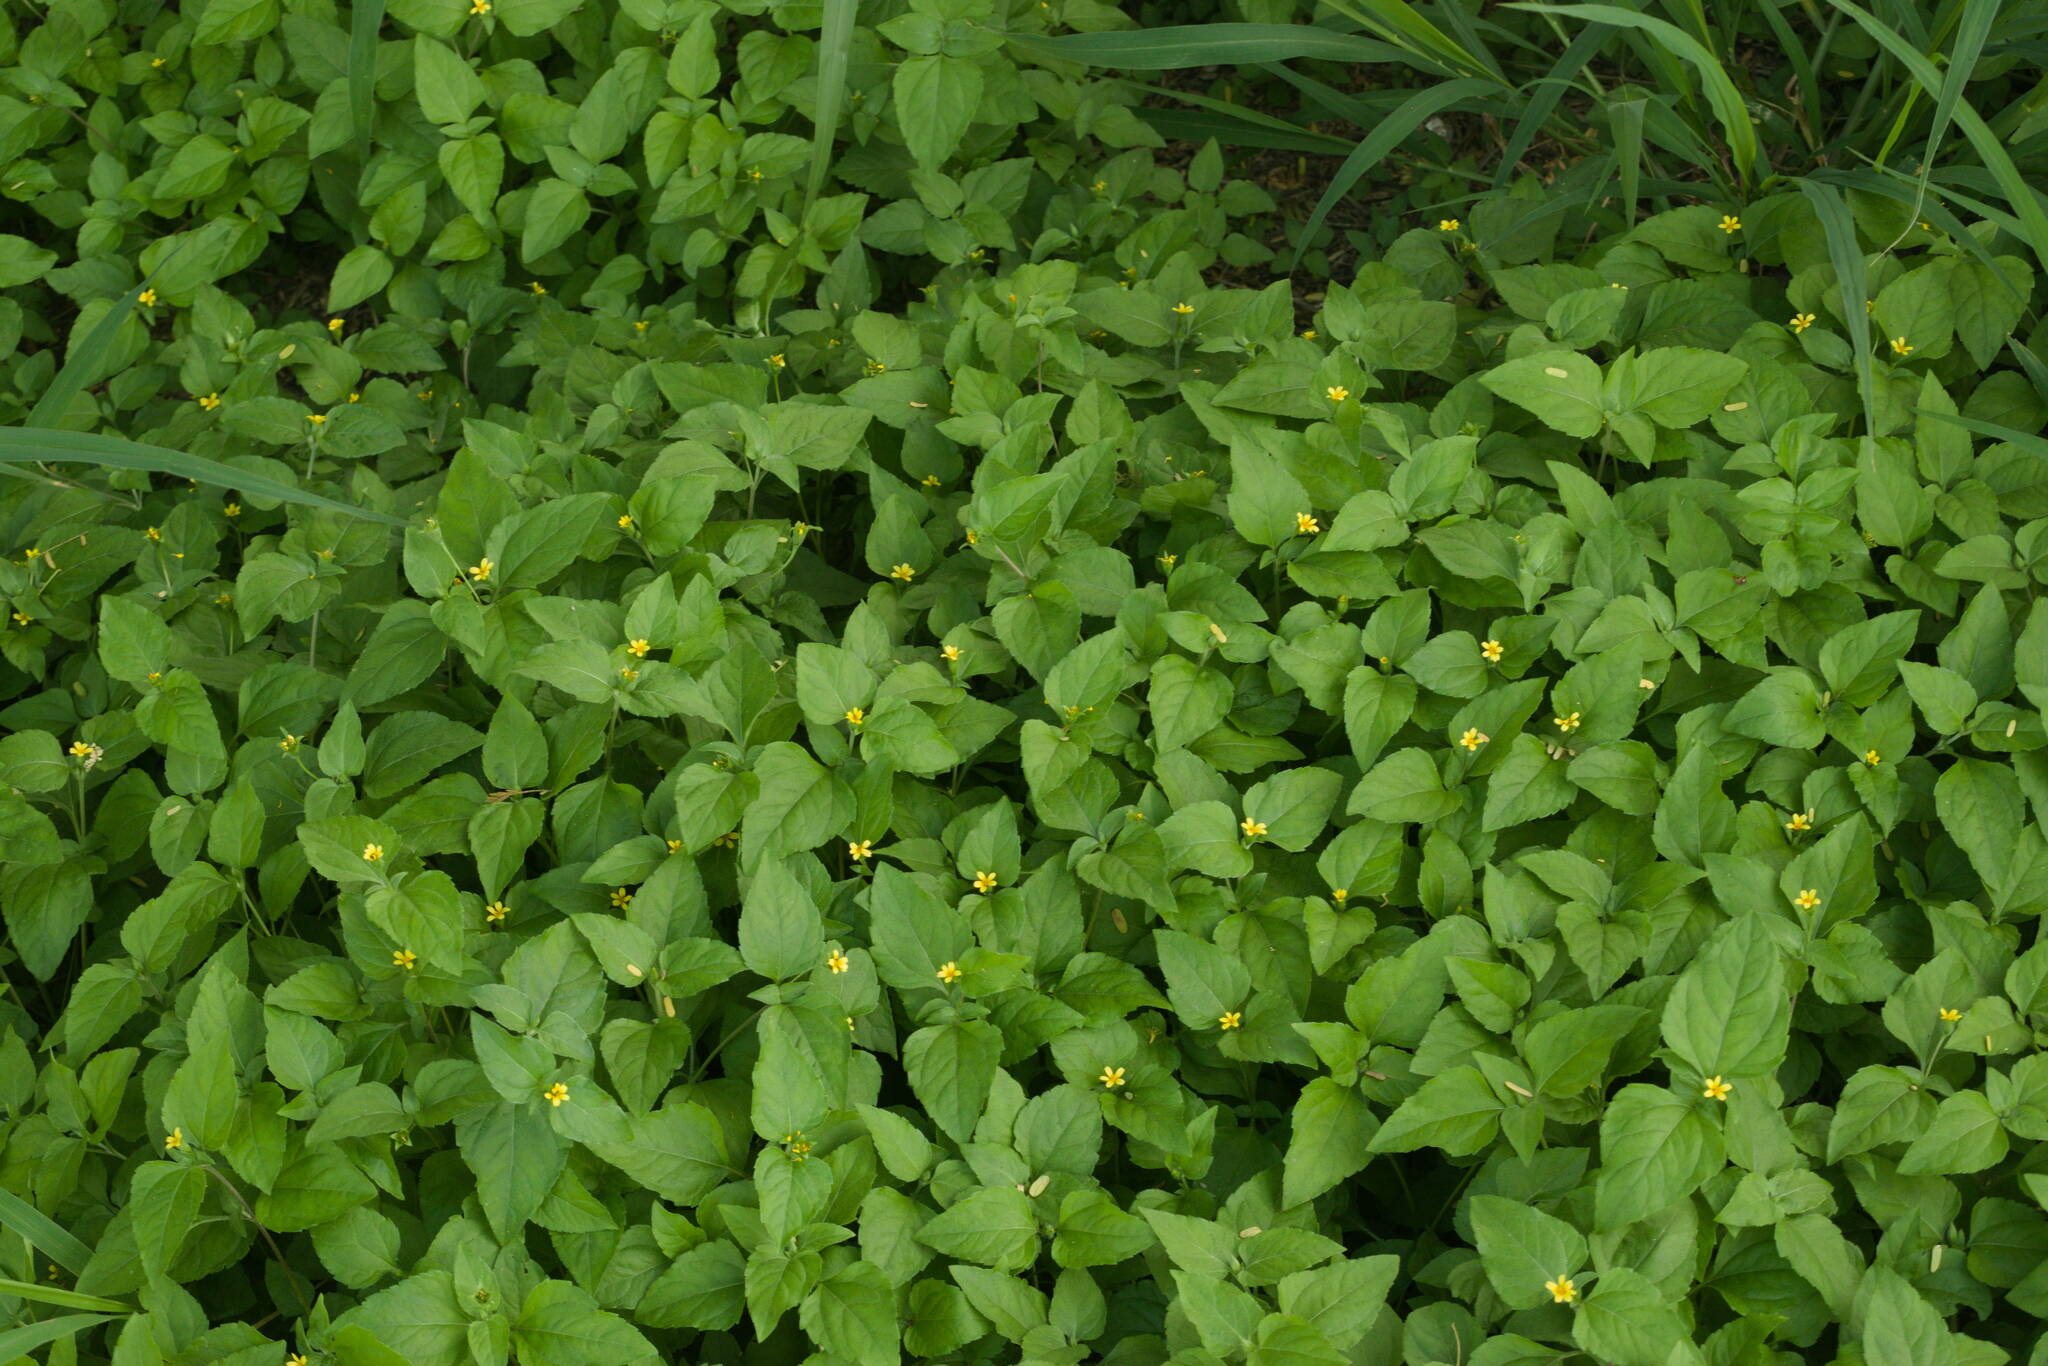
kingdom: Plantae
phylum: Tracheophyta
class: Magnoliopsida
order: Asterales
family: Asteraceae
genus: Calyptocarpus
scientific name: Calyptocarpus vialis
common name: Straggler daisy
